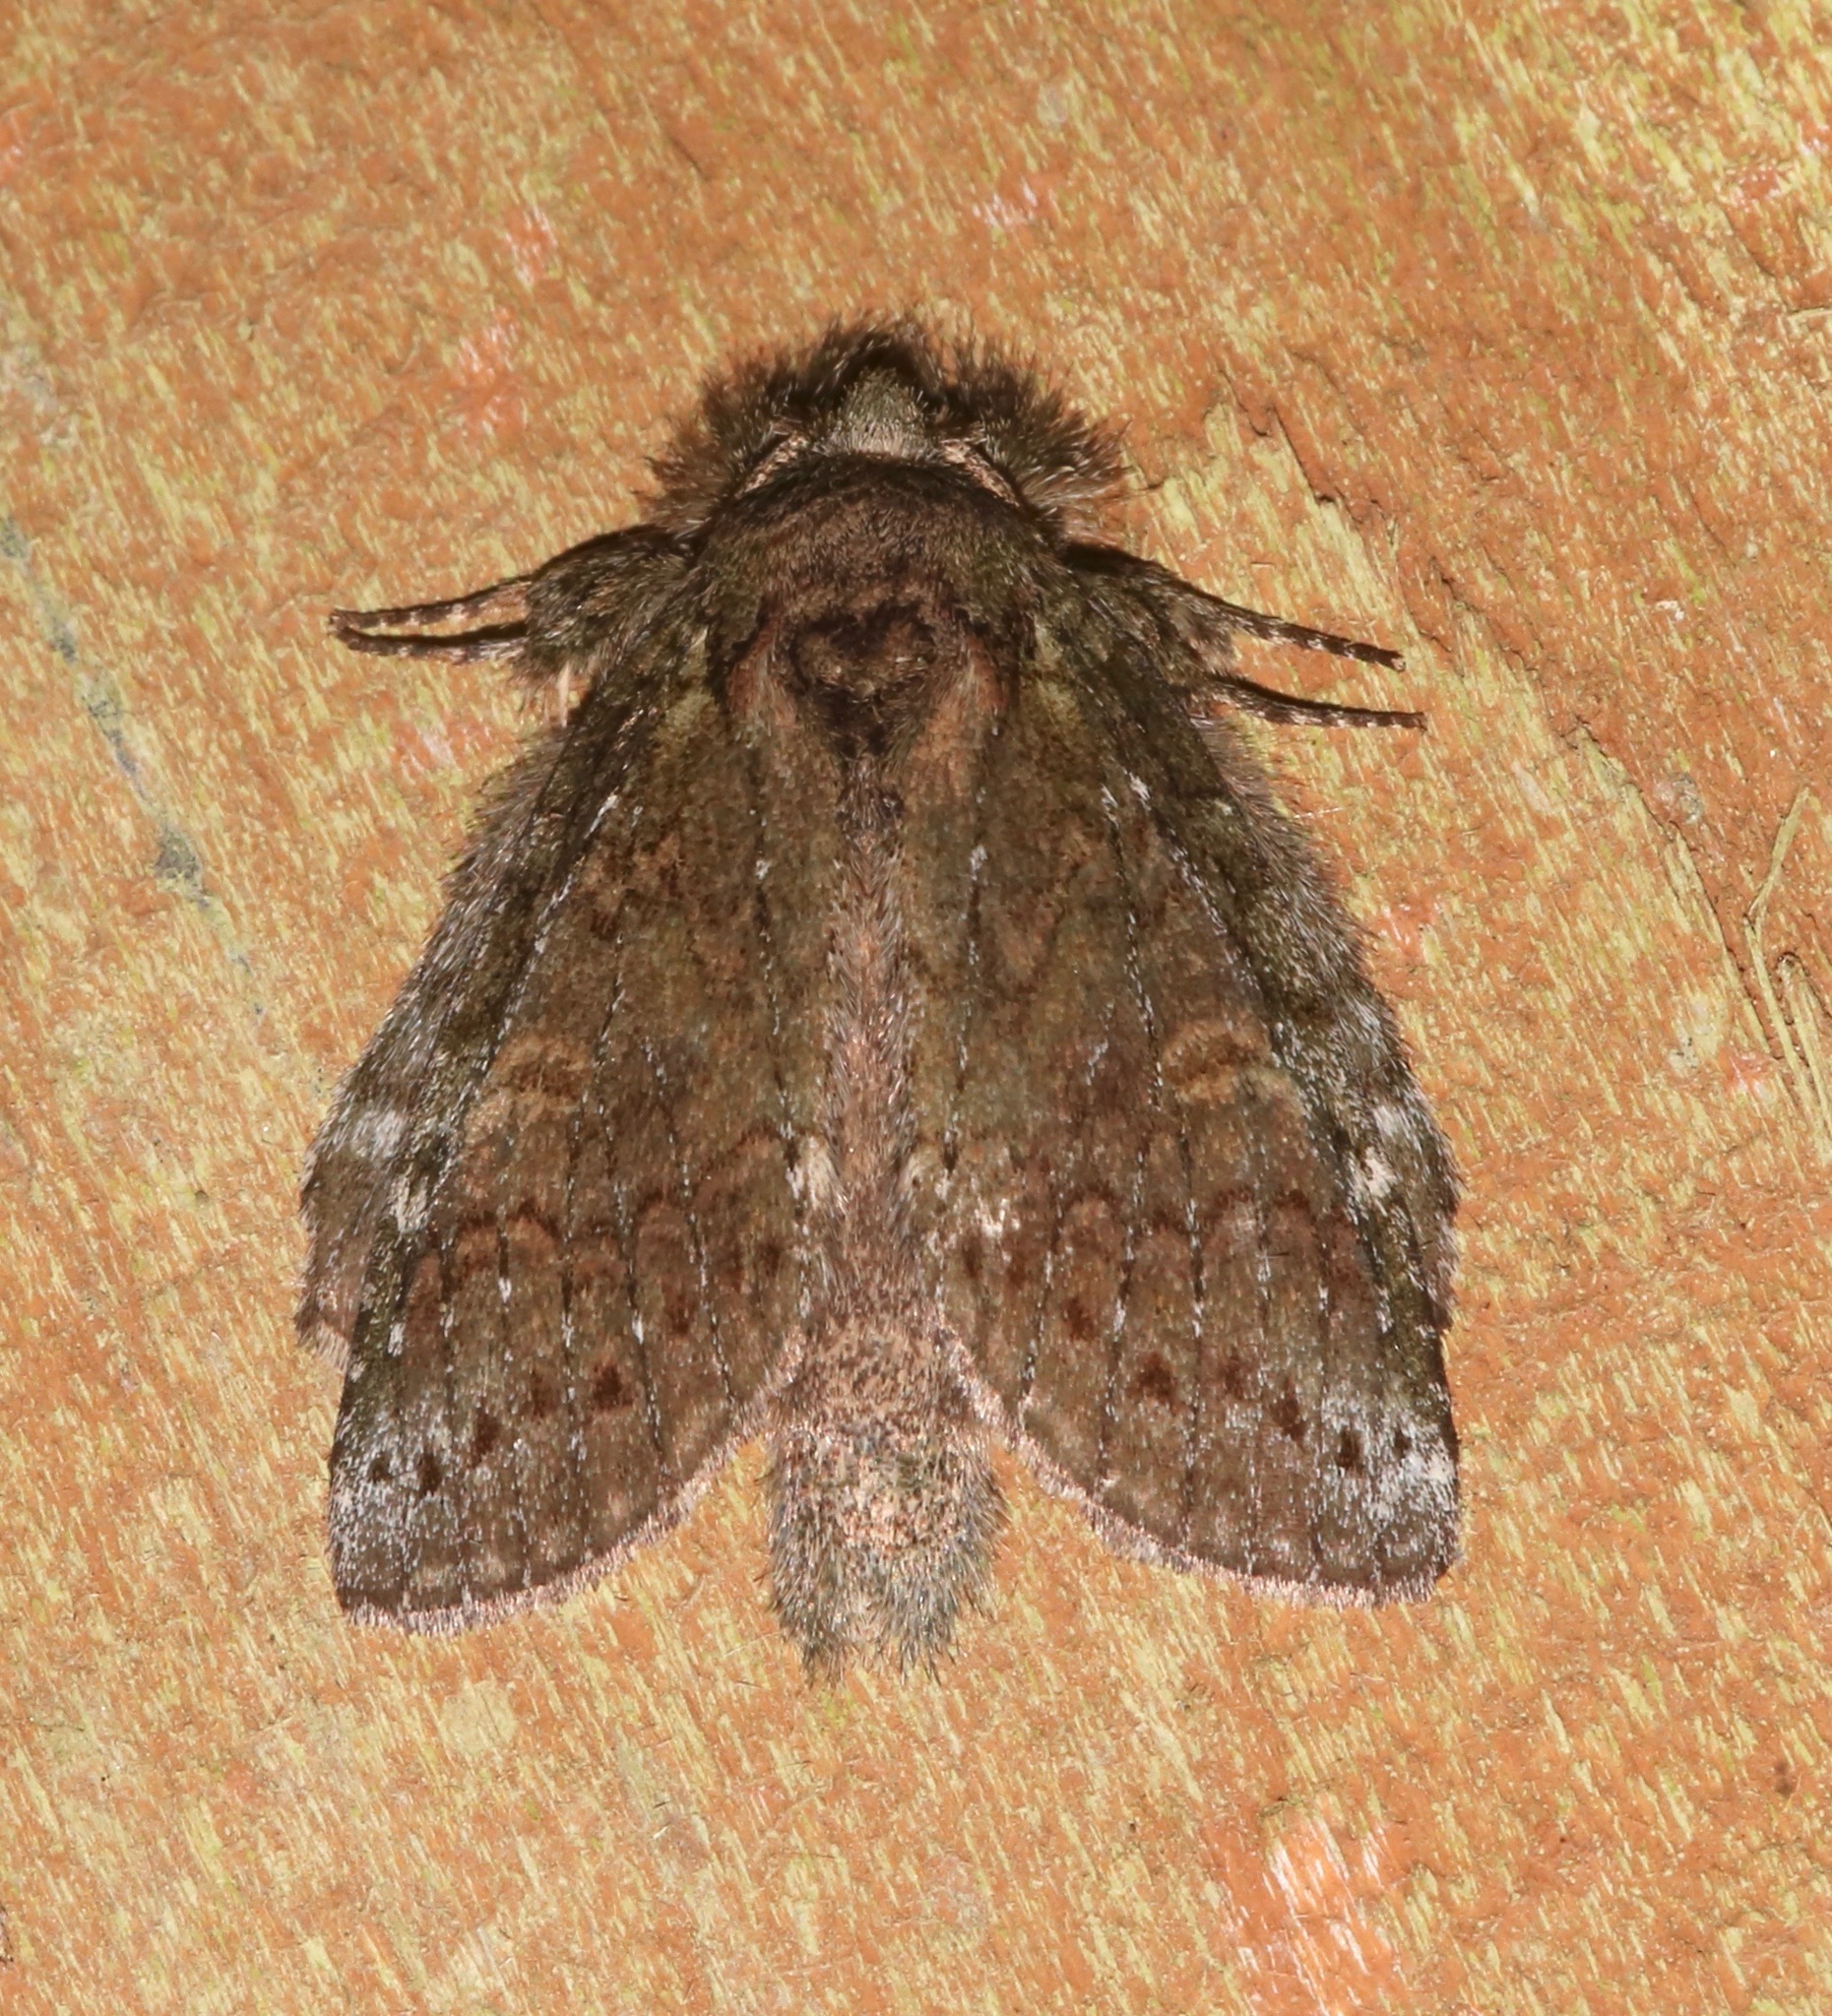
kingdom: Animalia
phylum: Arthropoda
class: Insecta
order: Lepidoptera
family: Notodontidae
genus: Disphragis
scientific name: Disphragis Cecrita biundata
